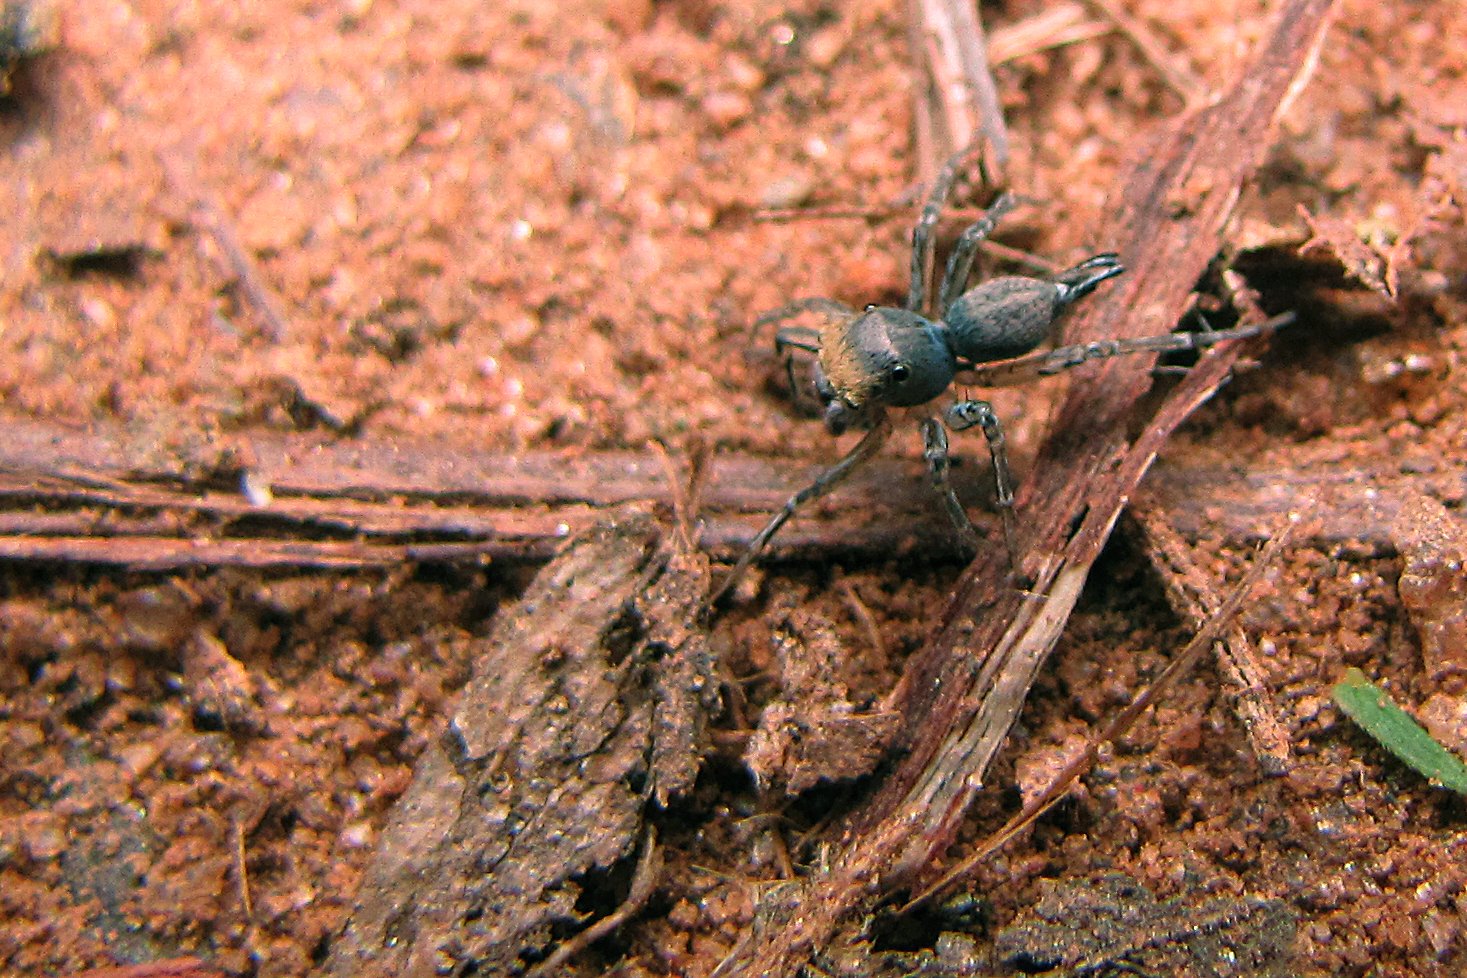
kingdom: Animalia
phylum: Arthropoda
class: Arachnida
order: Araneae
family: Salticidae
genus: Maeota
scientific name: Maeota dichrura
